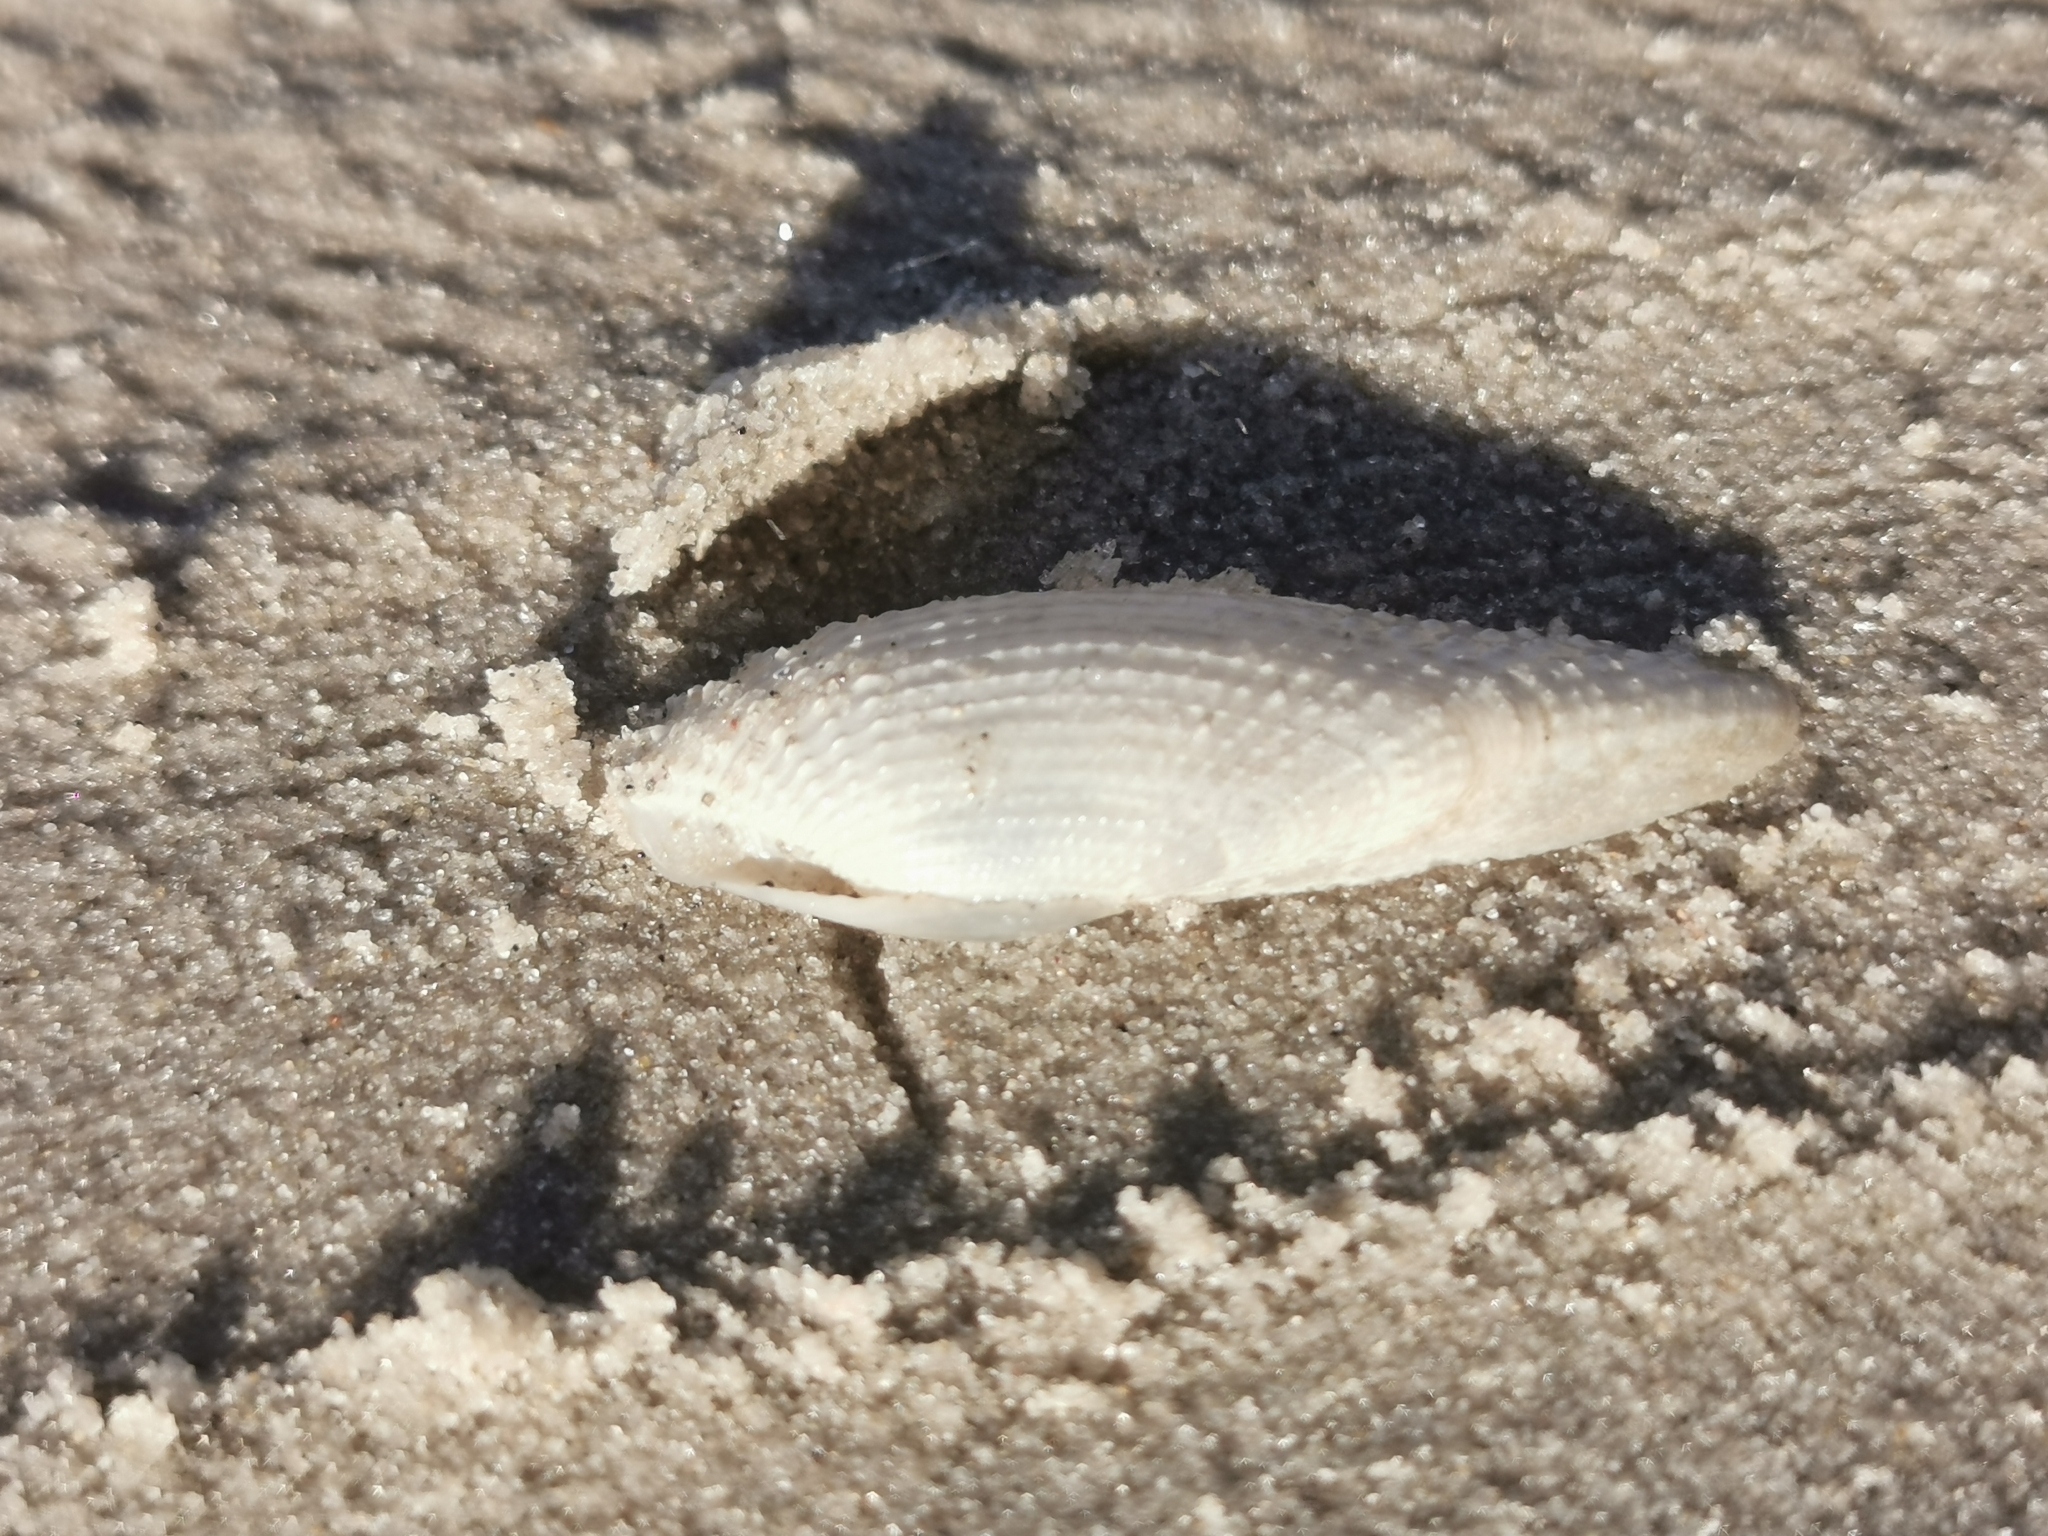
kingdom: Animalia
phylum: Mollusca
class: Bivalvia
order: Myida
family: Pholadidae
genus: Barnea
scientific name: Barnea candida
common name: White piddock
